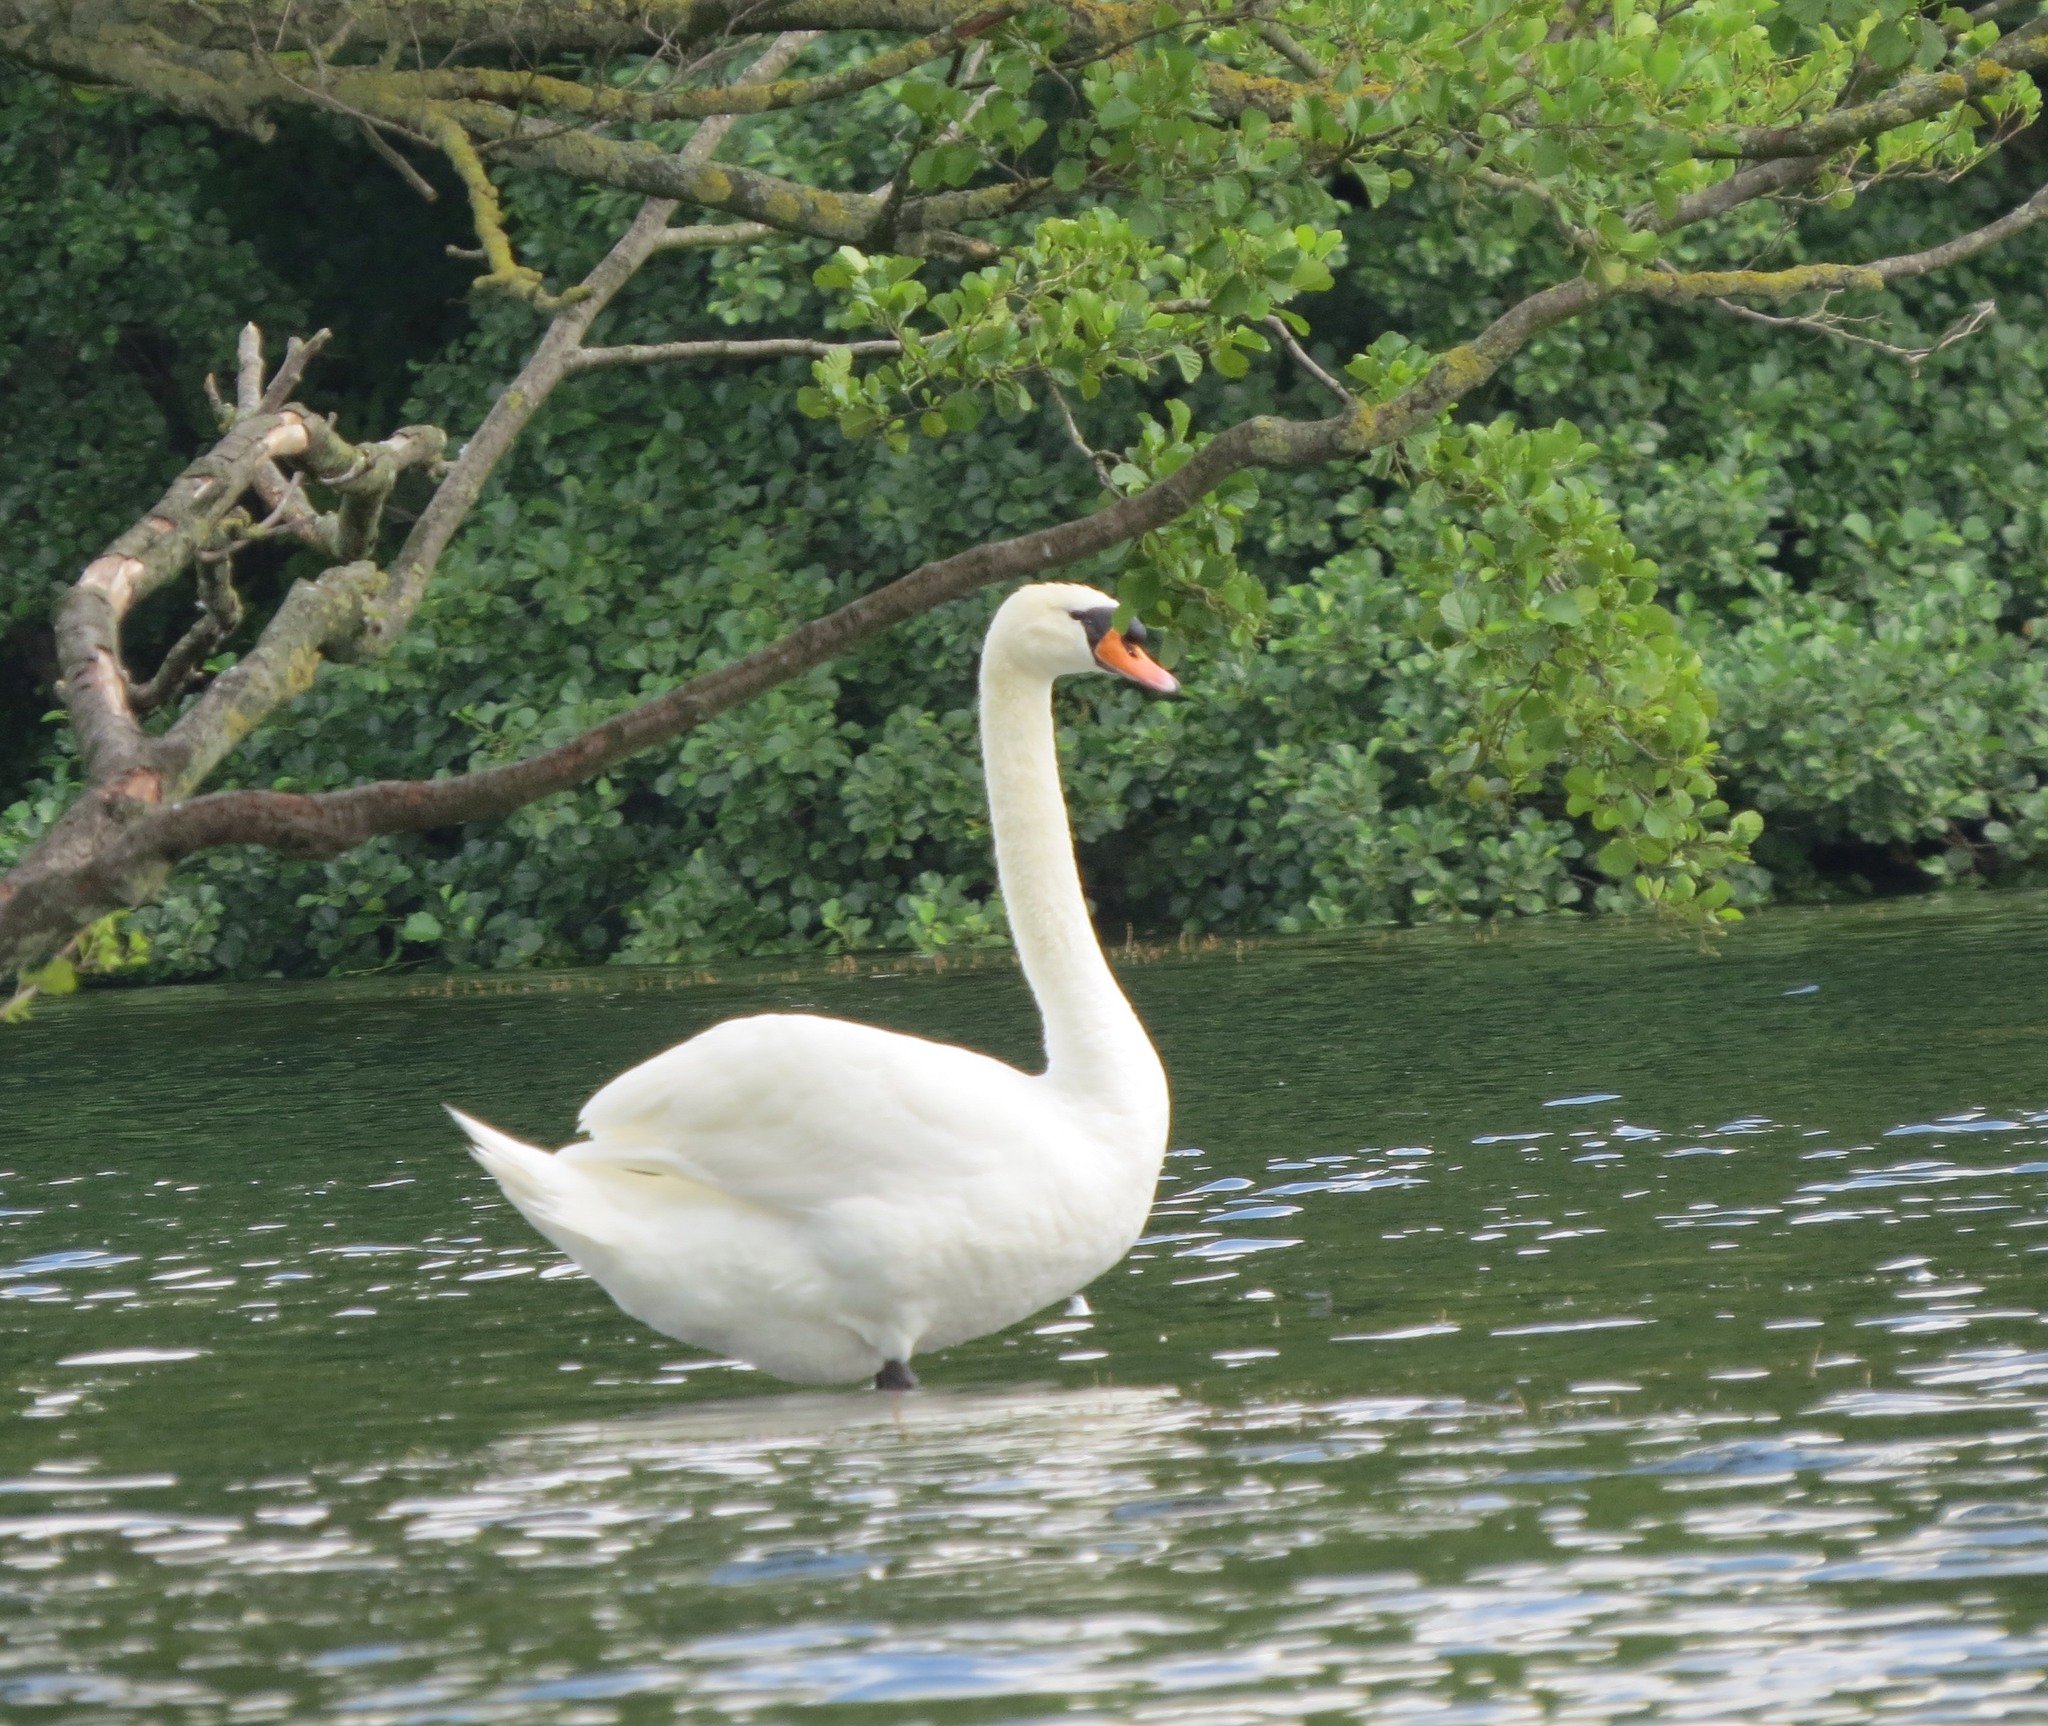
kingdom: Animalia
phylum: Chordata
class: Aves
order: Anseriformes
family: Anatidae
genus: Cygnus
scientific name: Cygnus olor
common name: Mute swan
